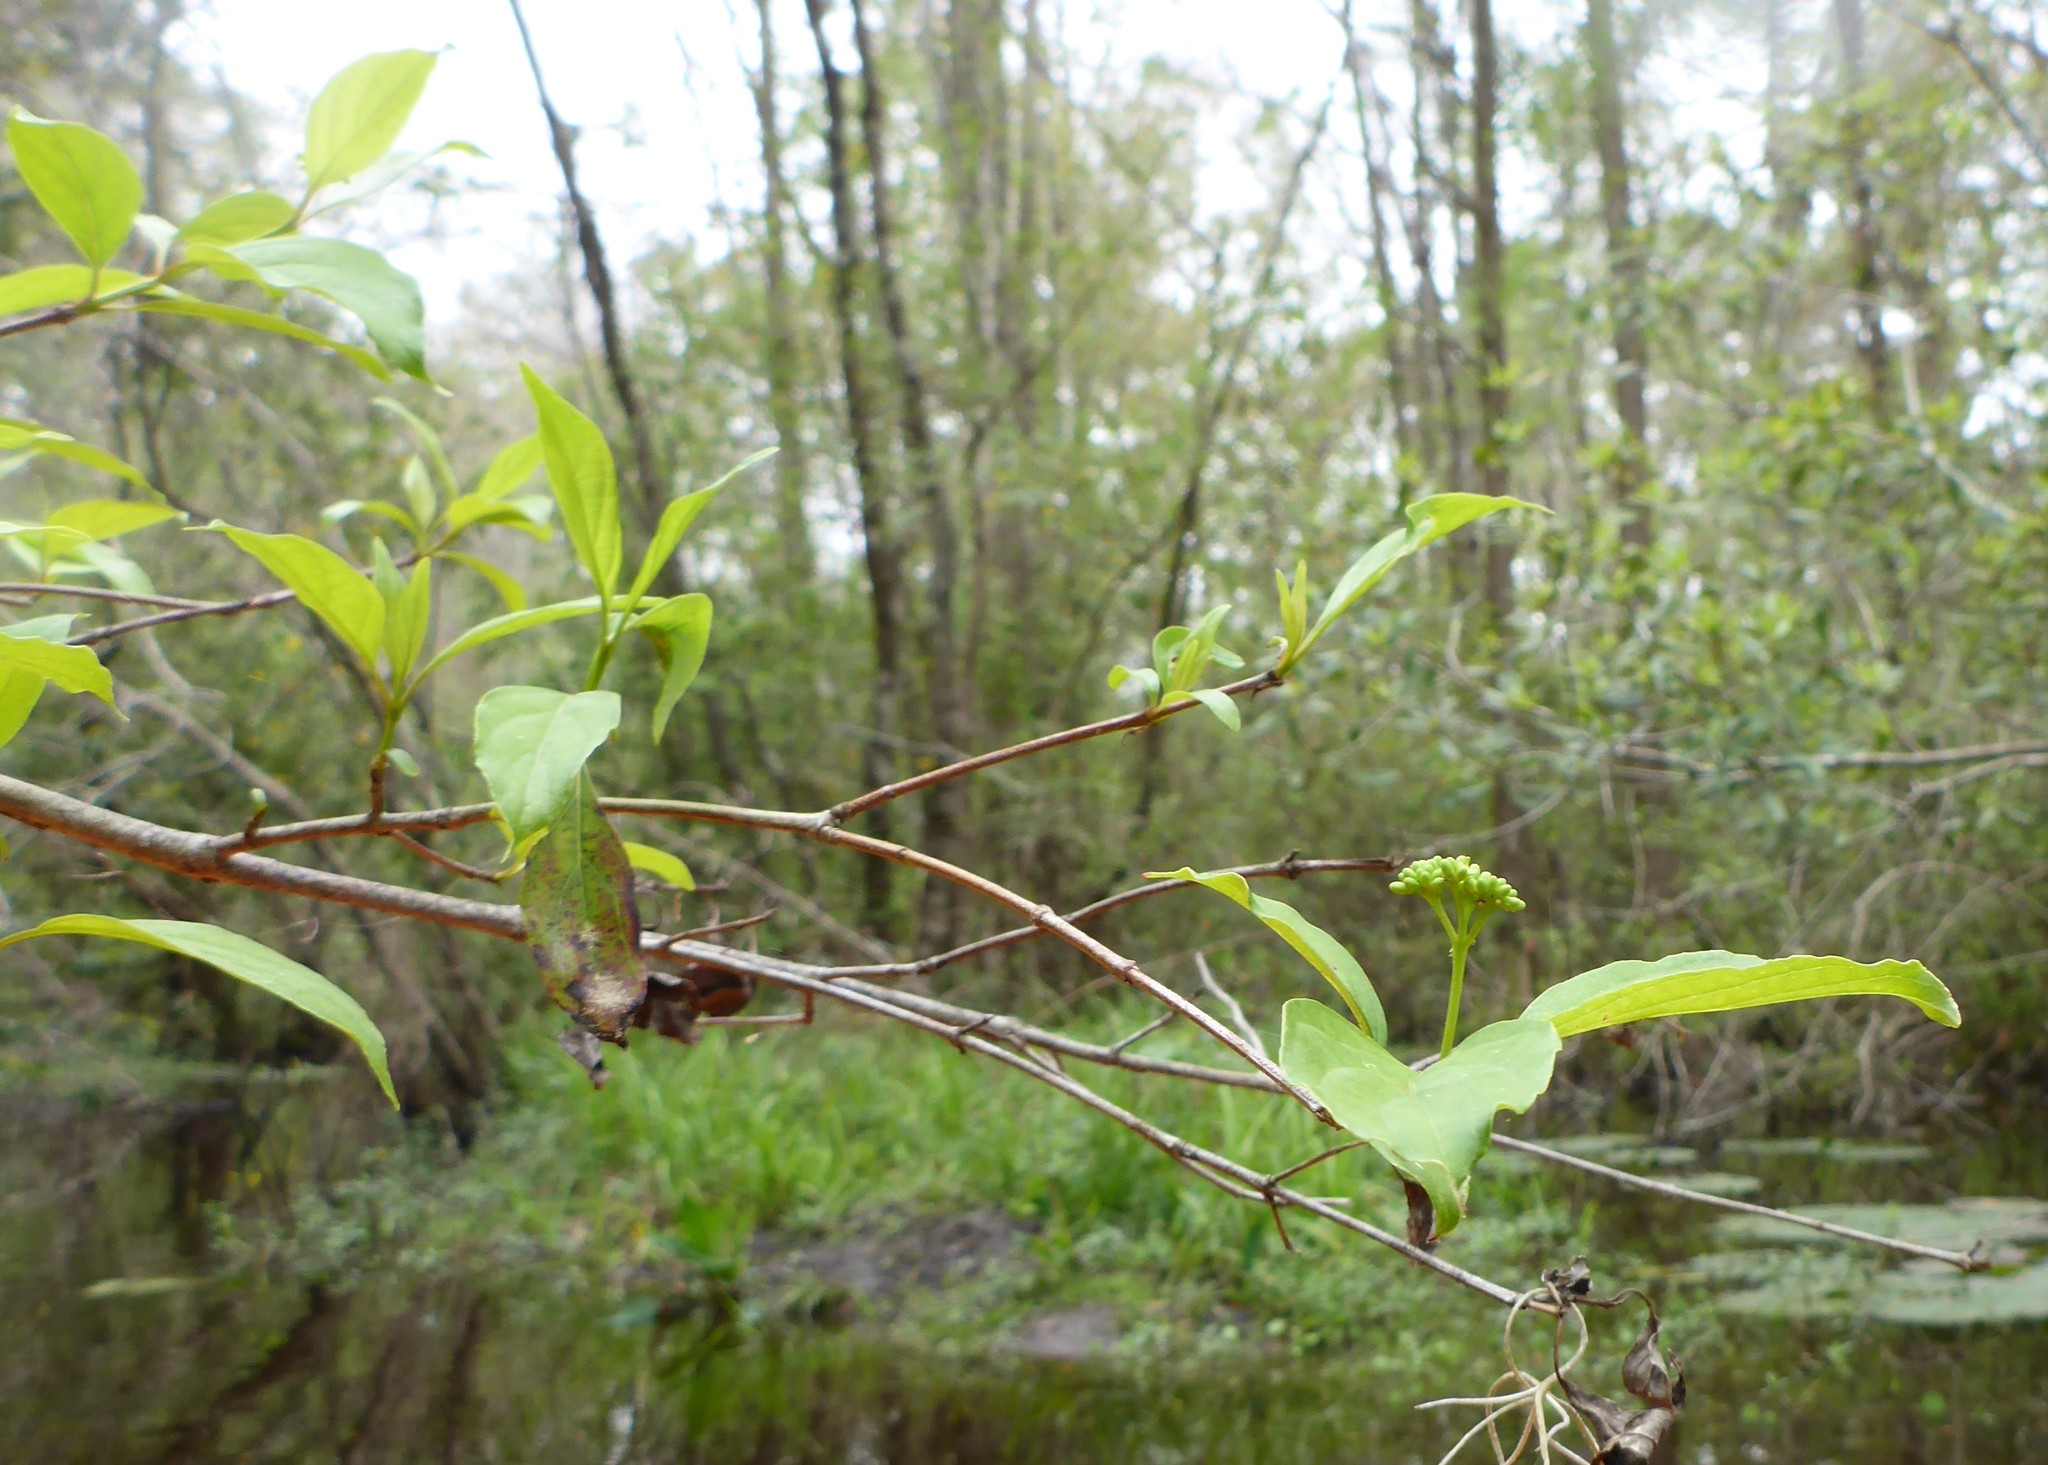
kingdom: Plantae
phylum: Tracheophyta
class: Magnoliopsida
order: Cornales
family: Cornaceae
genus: Cornus
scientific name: Cornus foemina
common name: Swamp dogwood
